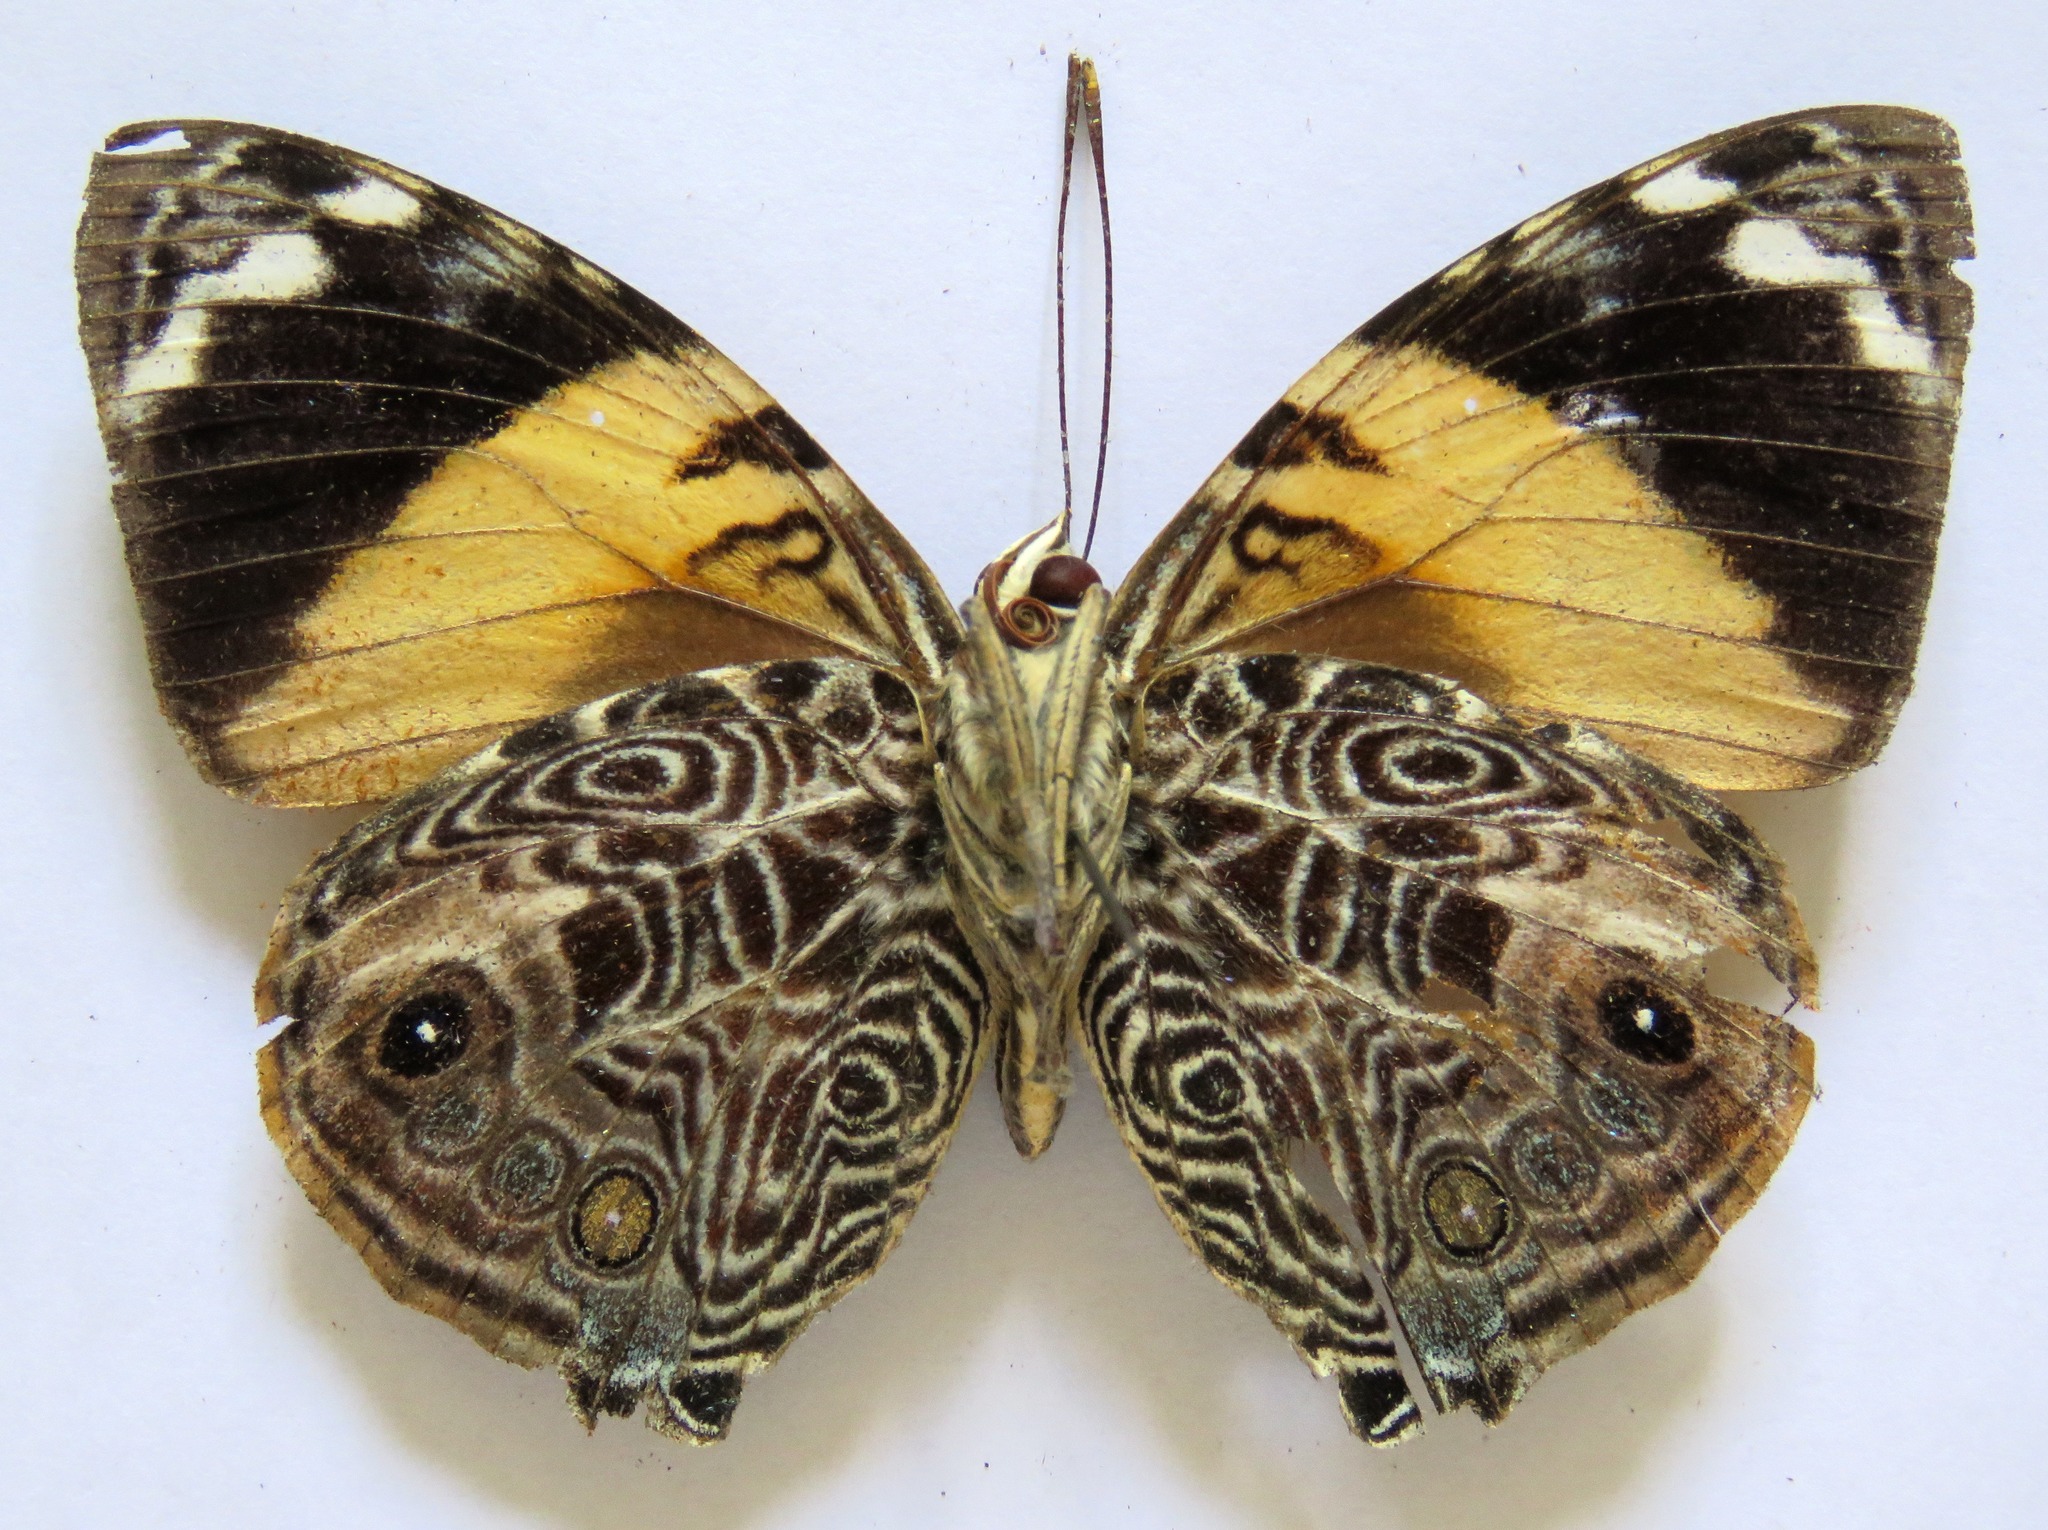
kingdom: Animalia
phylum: Arthropoda
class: Insecta
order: Lepidoptera
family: Nymphalidae
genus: Smyrna
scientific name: Smyrna blomfildia
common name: Blomfild's beauty
